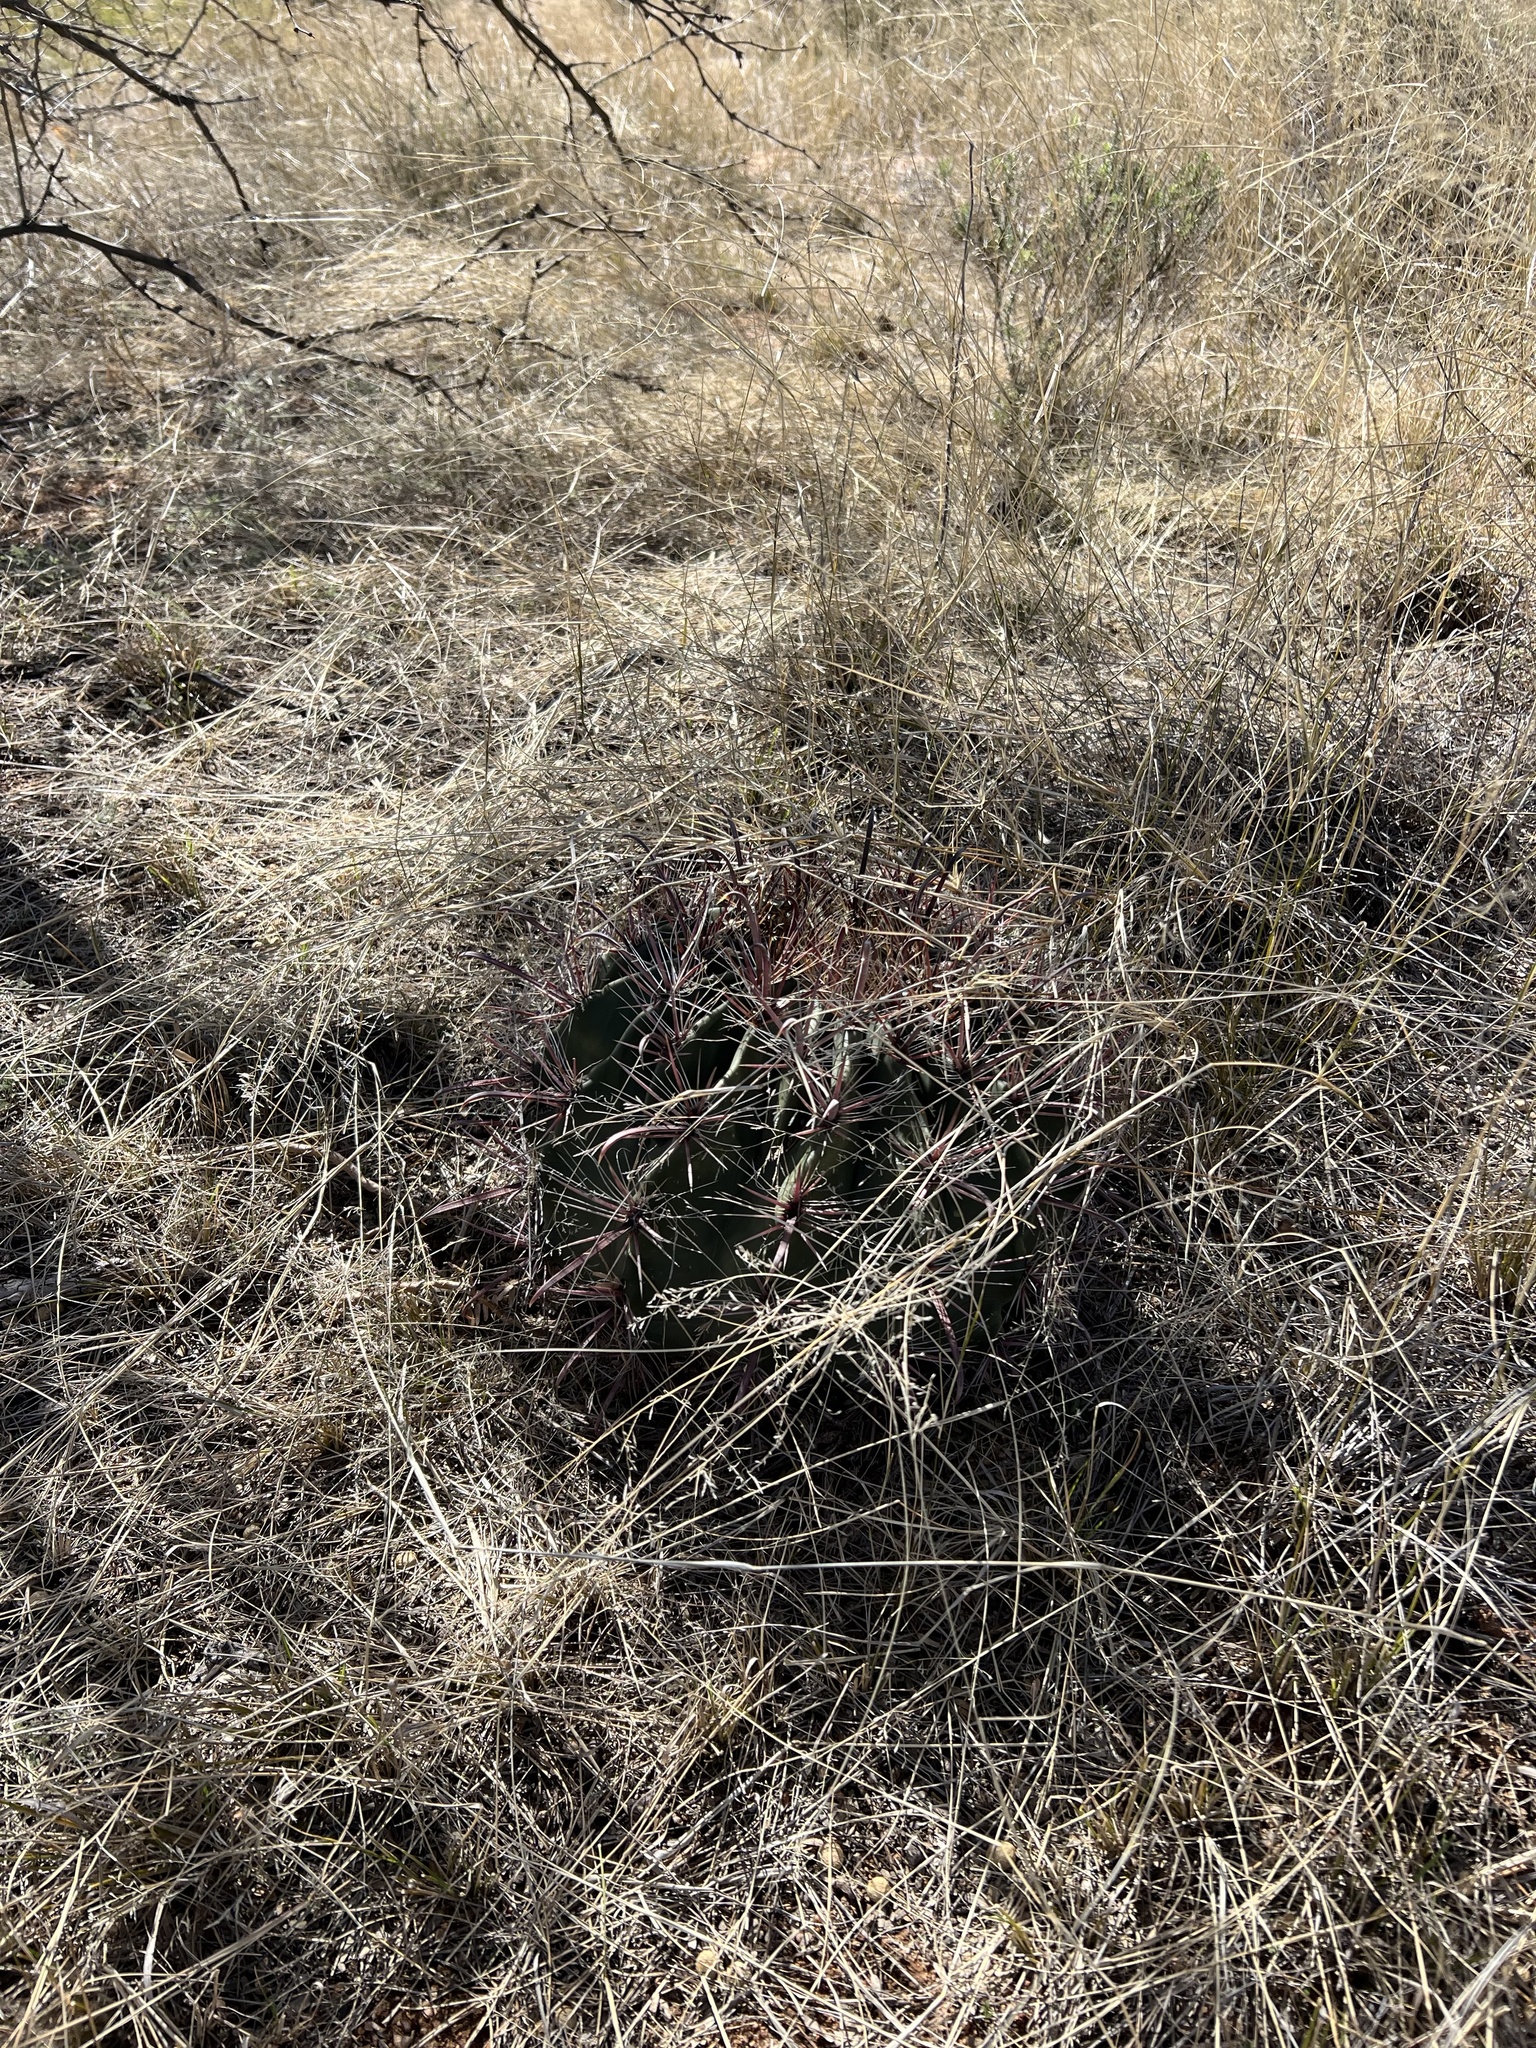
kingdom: Plantae
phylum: Tracheophyta
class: Magnoliopsida
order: Caryophyllales
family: Cactaceae
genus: Ferocactus
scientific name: Ferocactus wislizeni
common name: Candy barrel cactus
